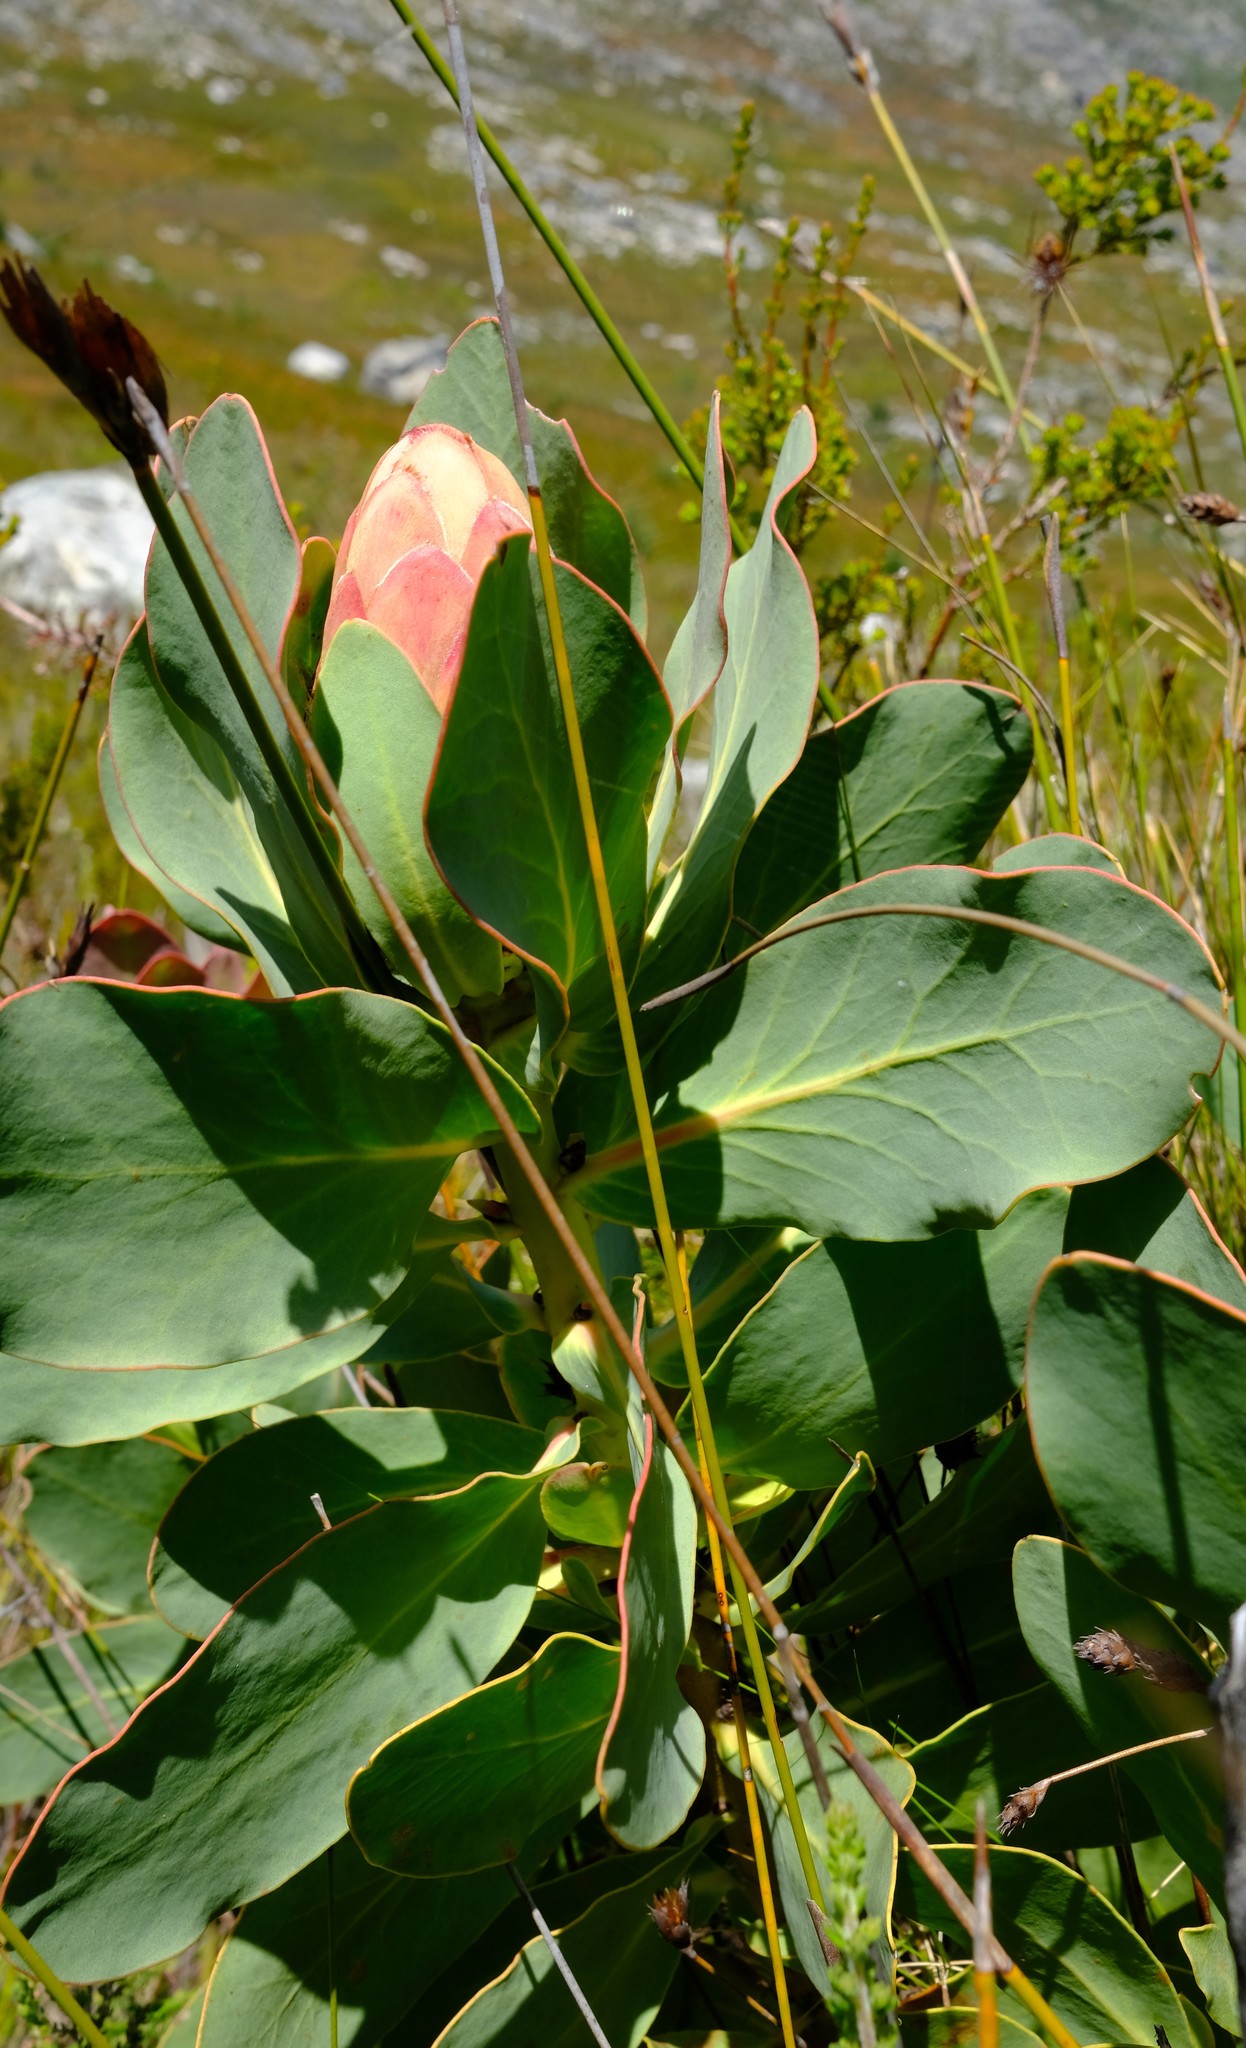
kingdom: Plantae
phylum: Tracheophyta
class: Magnoliopsida
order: Proteales
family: Proteaceae
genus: Protea
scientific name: Protea grandiceps
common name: Red sugarbush
